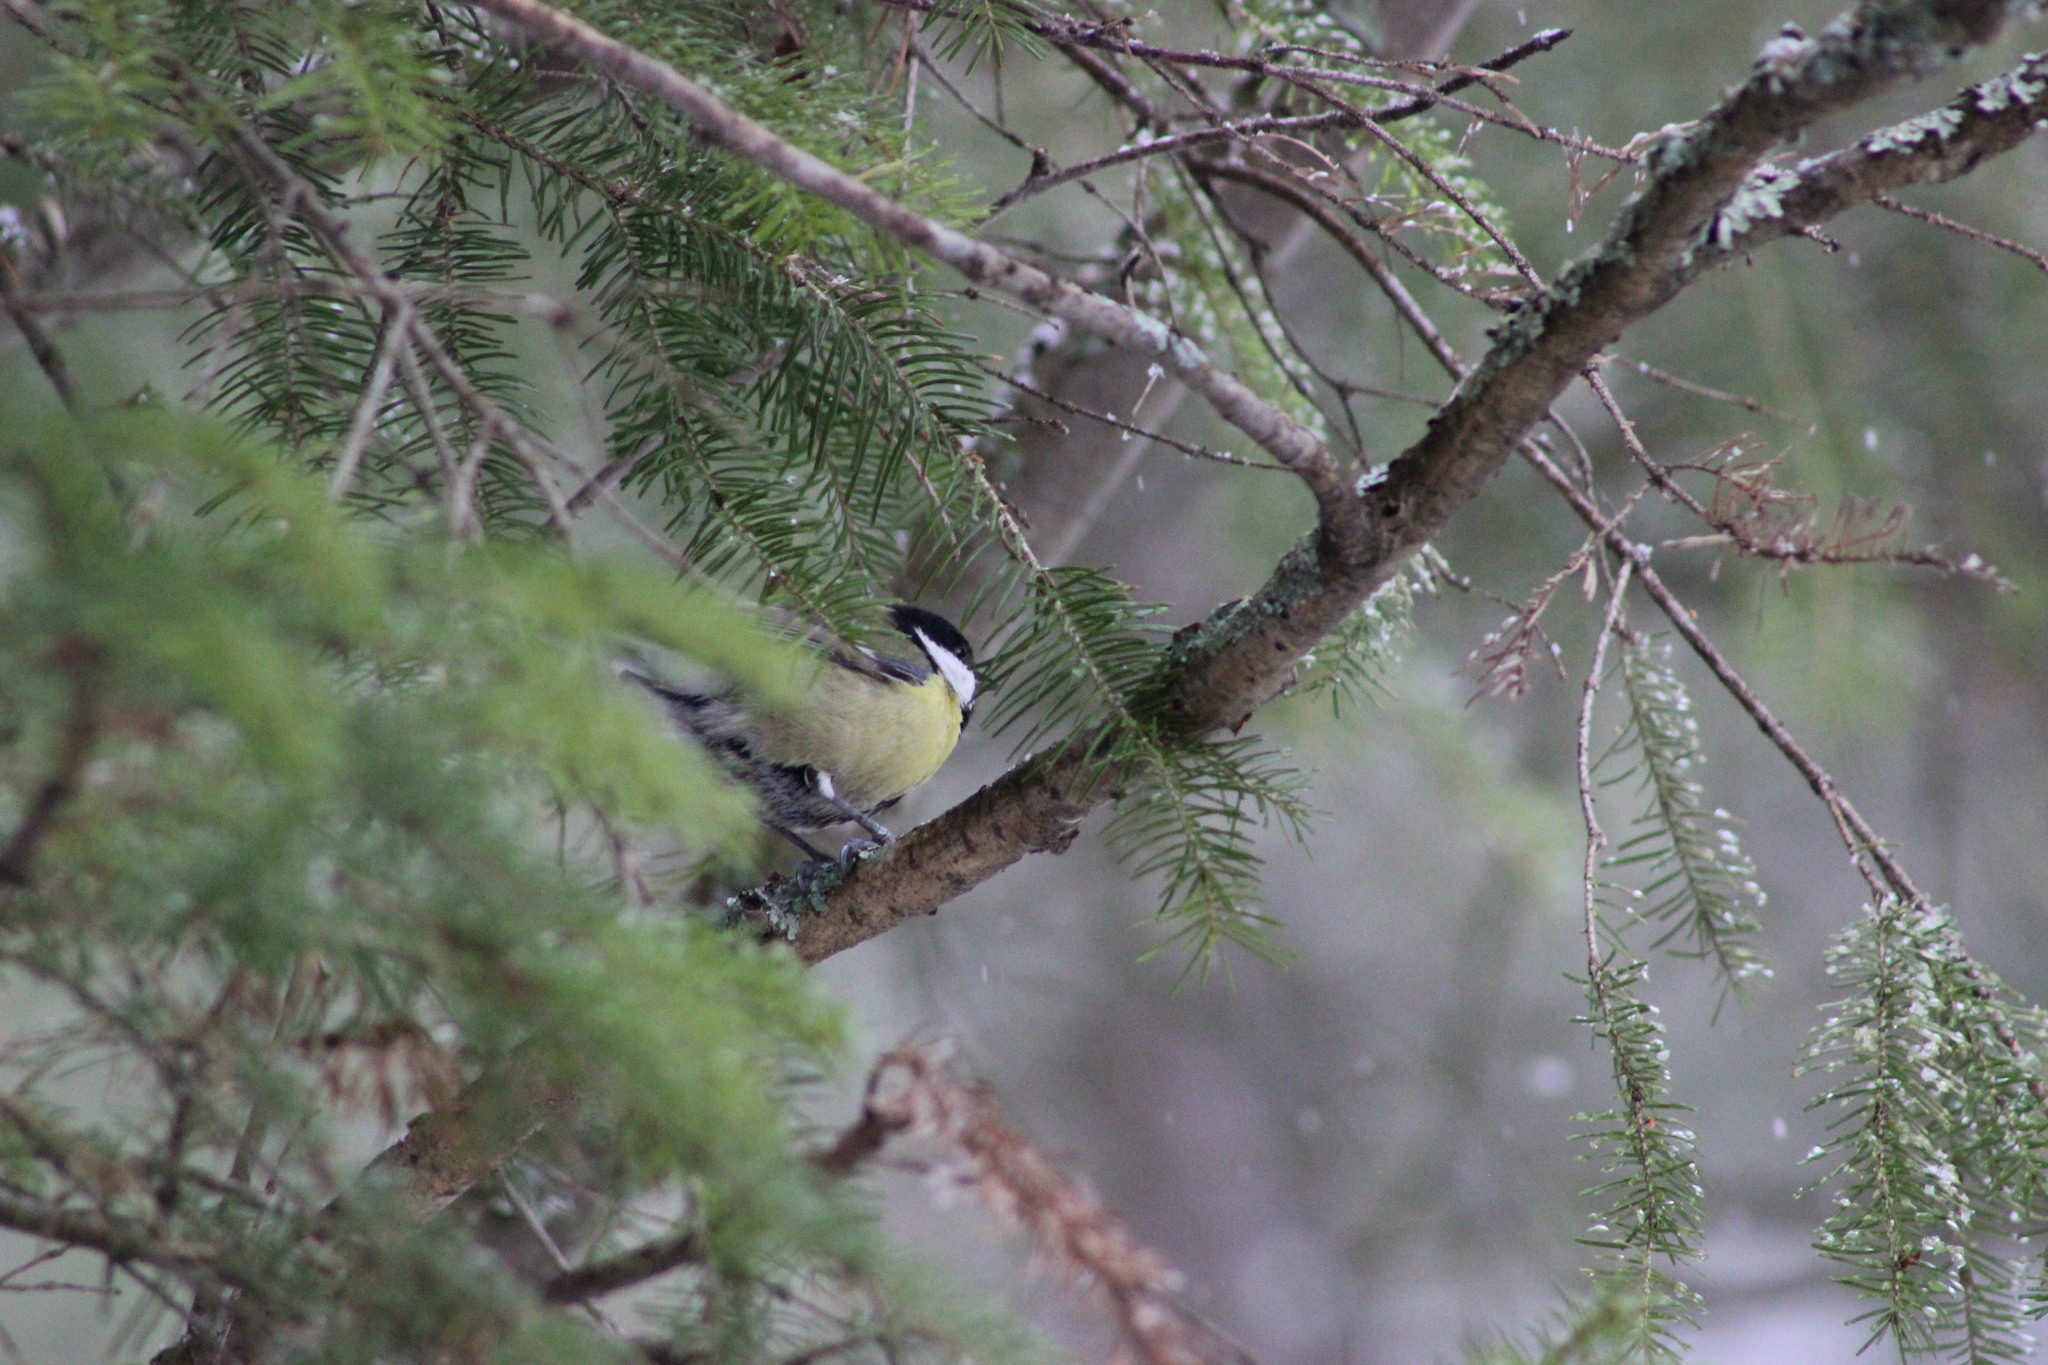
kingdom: Animalia
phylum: Chordata
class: Aves
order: Passeriformes
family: Paridae
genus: Parus
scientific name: Parus major
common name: Great tit
